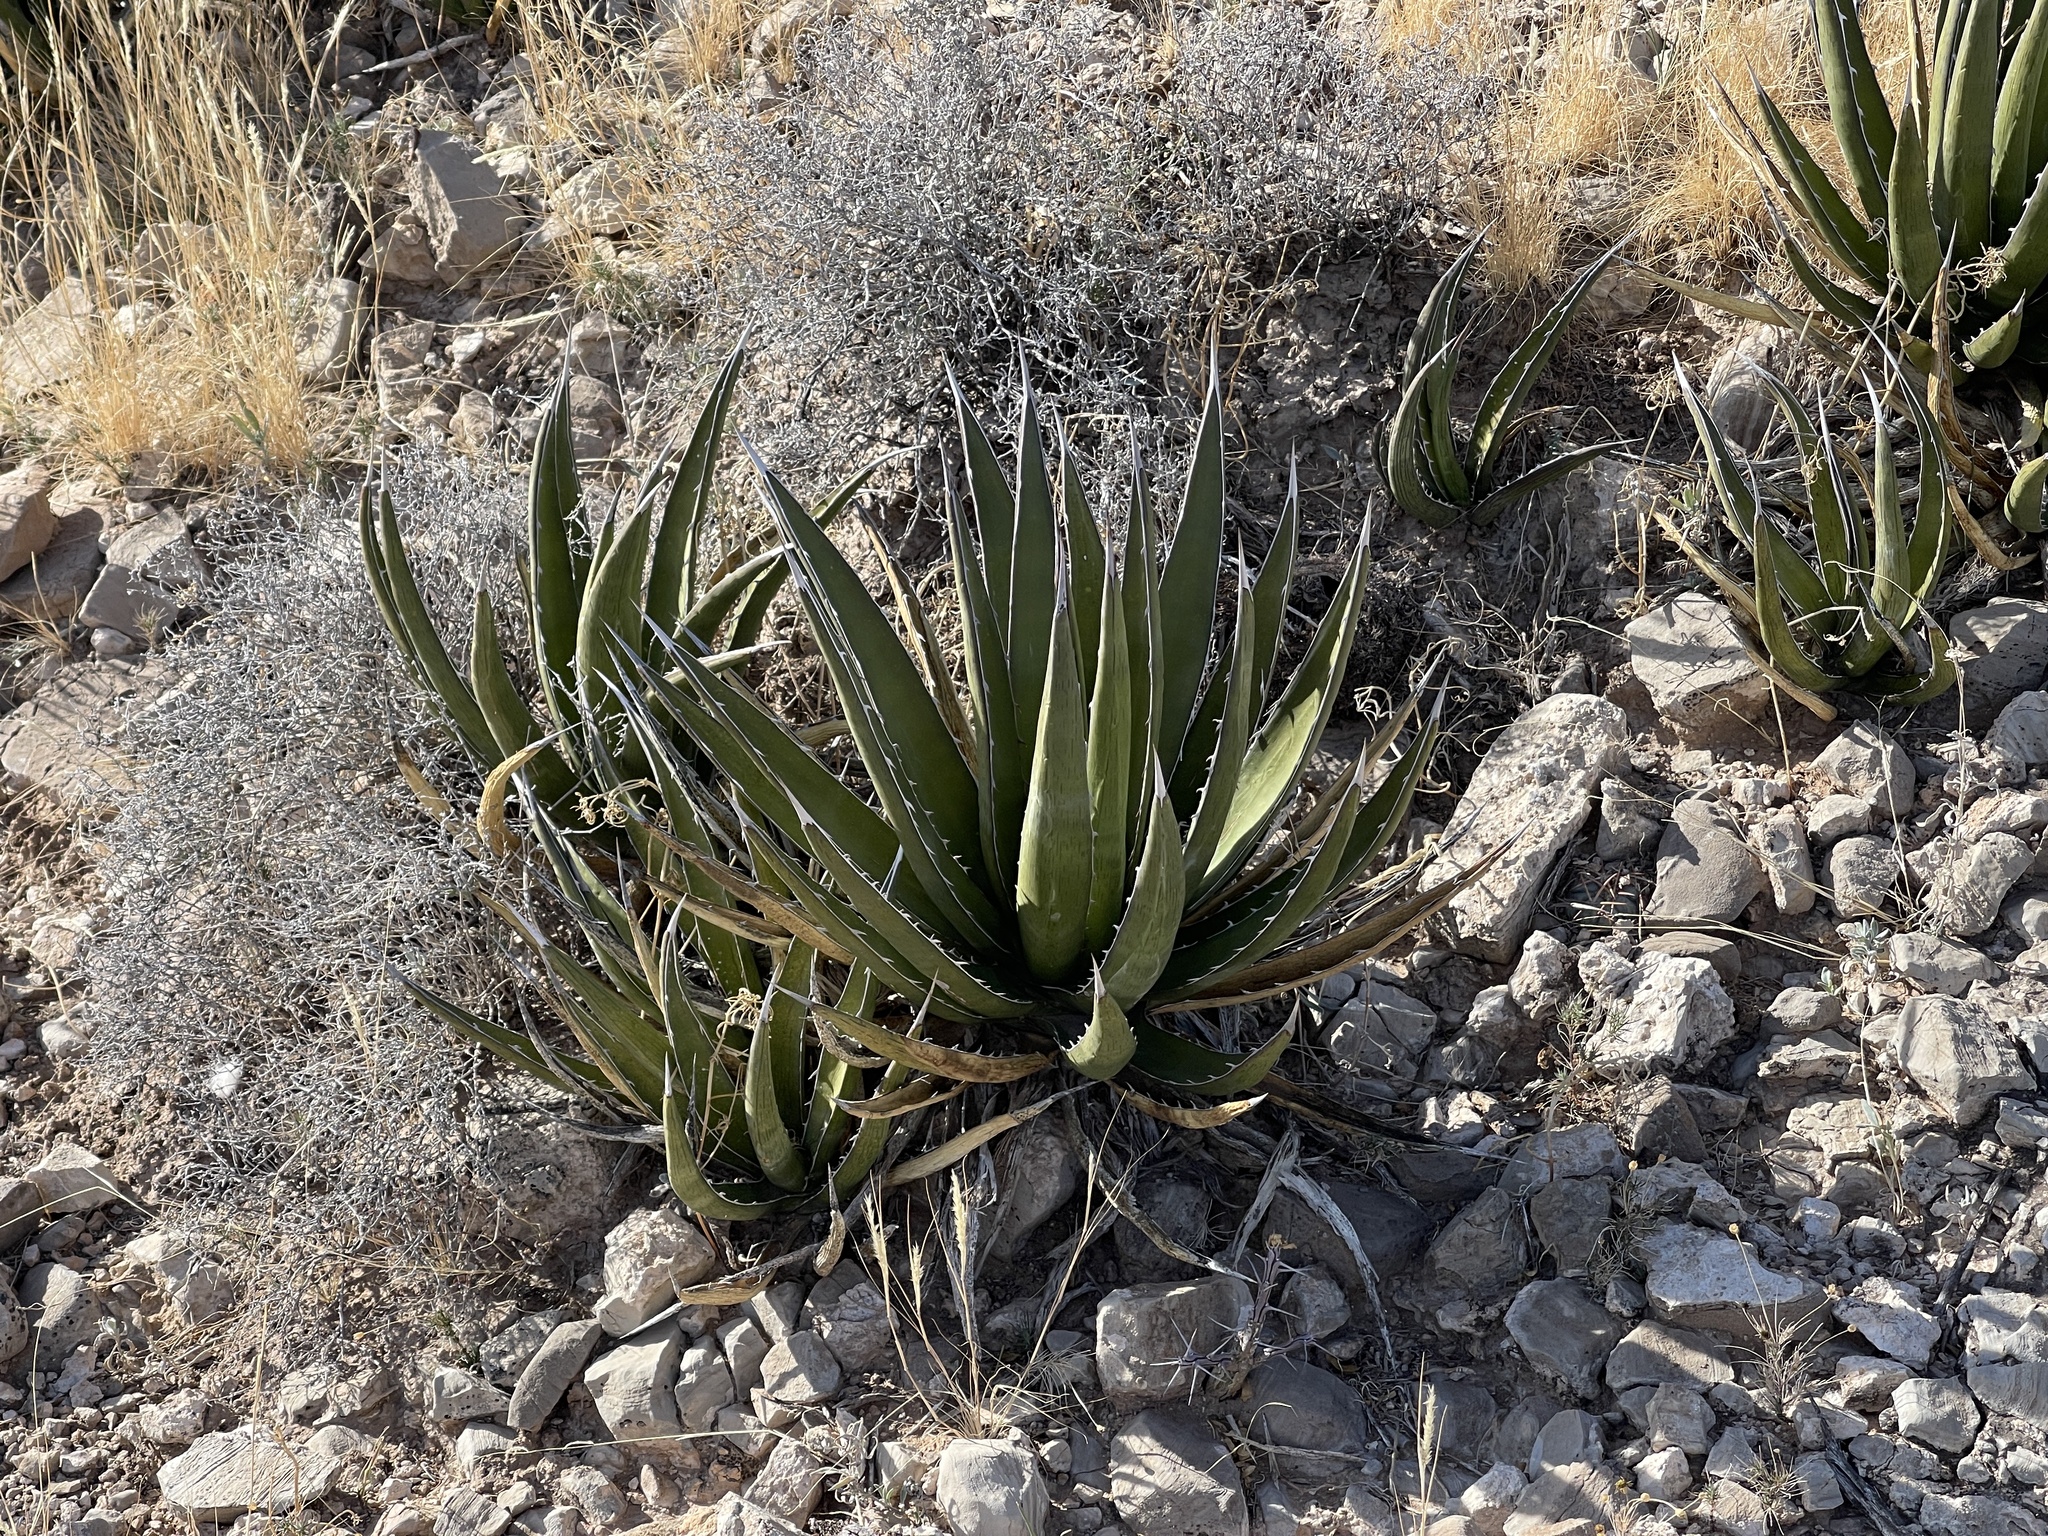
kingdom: Plantae
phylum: Tracheophyta
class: Liliopsida
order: Asparagales
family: Asparagaceae
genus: Agave
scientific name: Agave lechuguilla
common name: Lecheguilla agave
